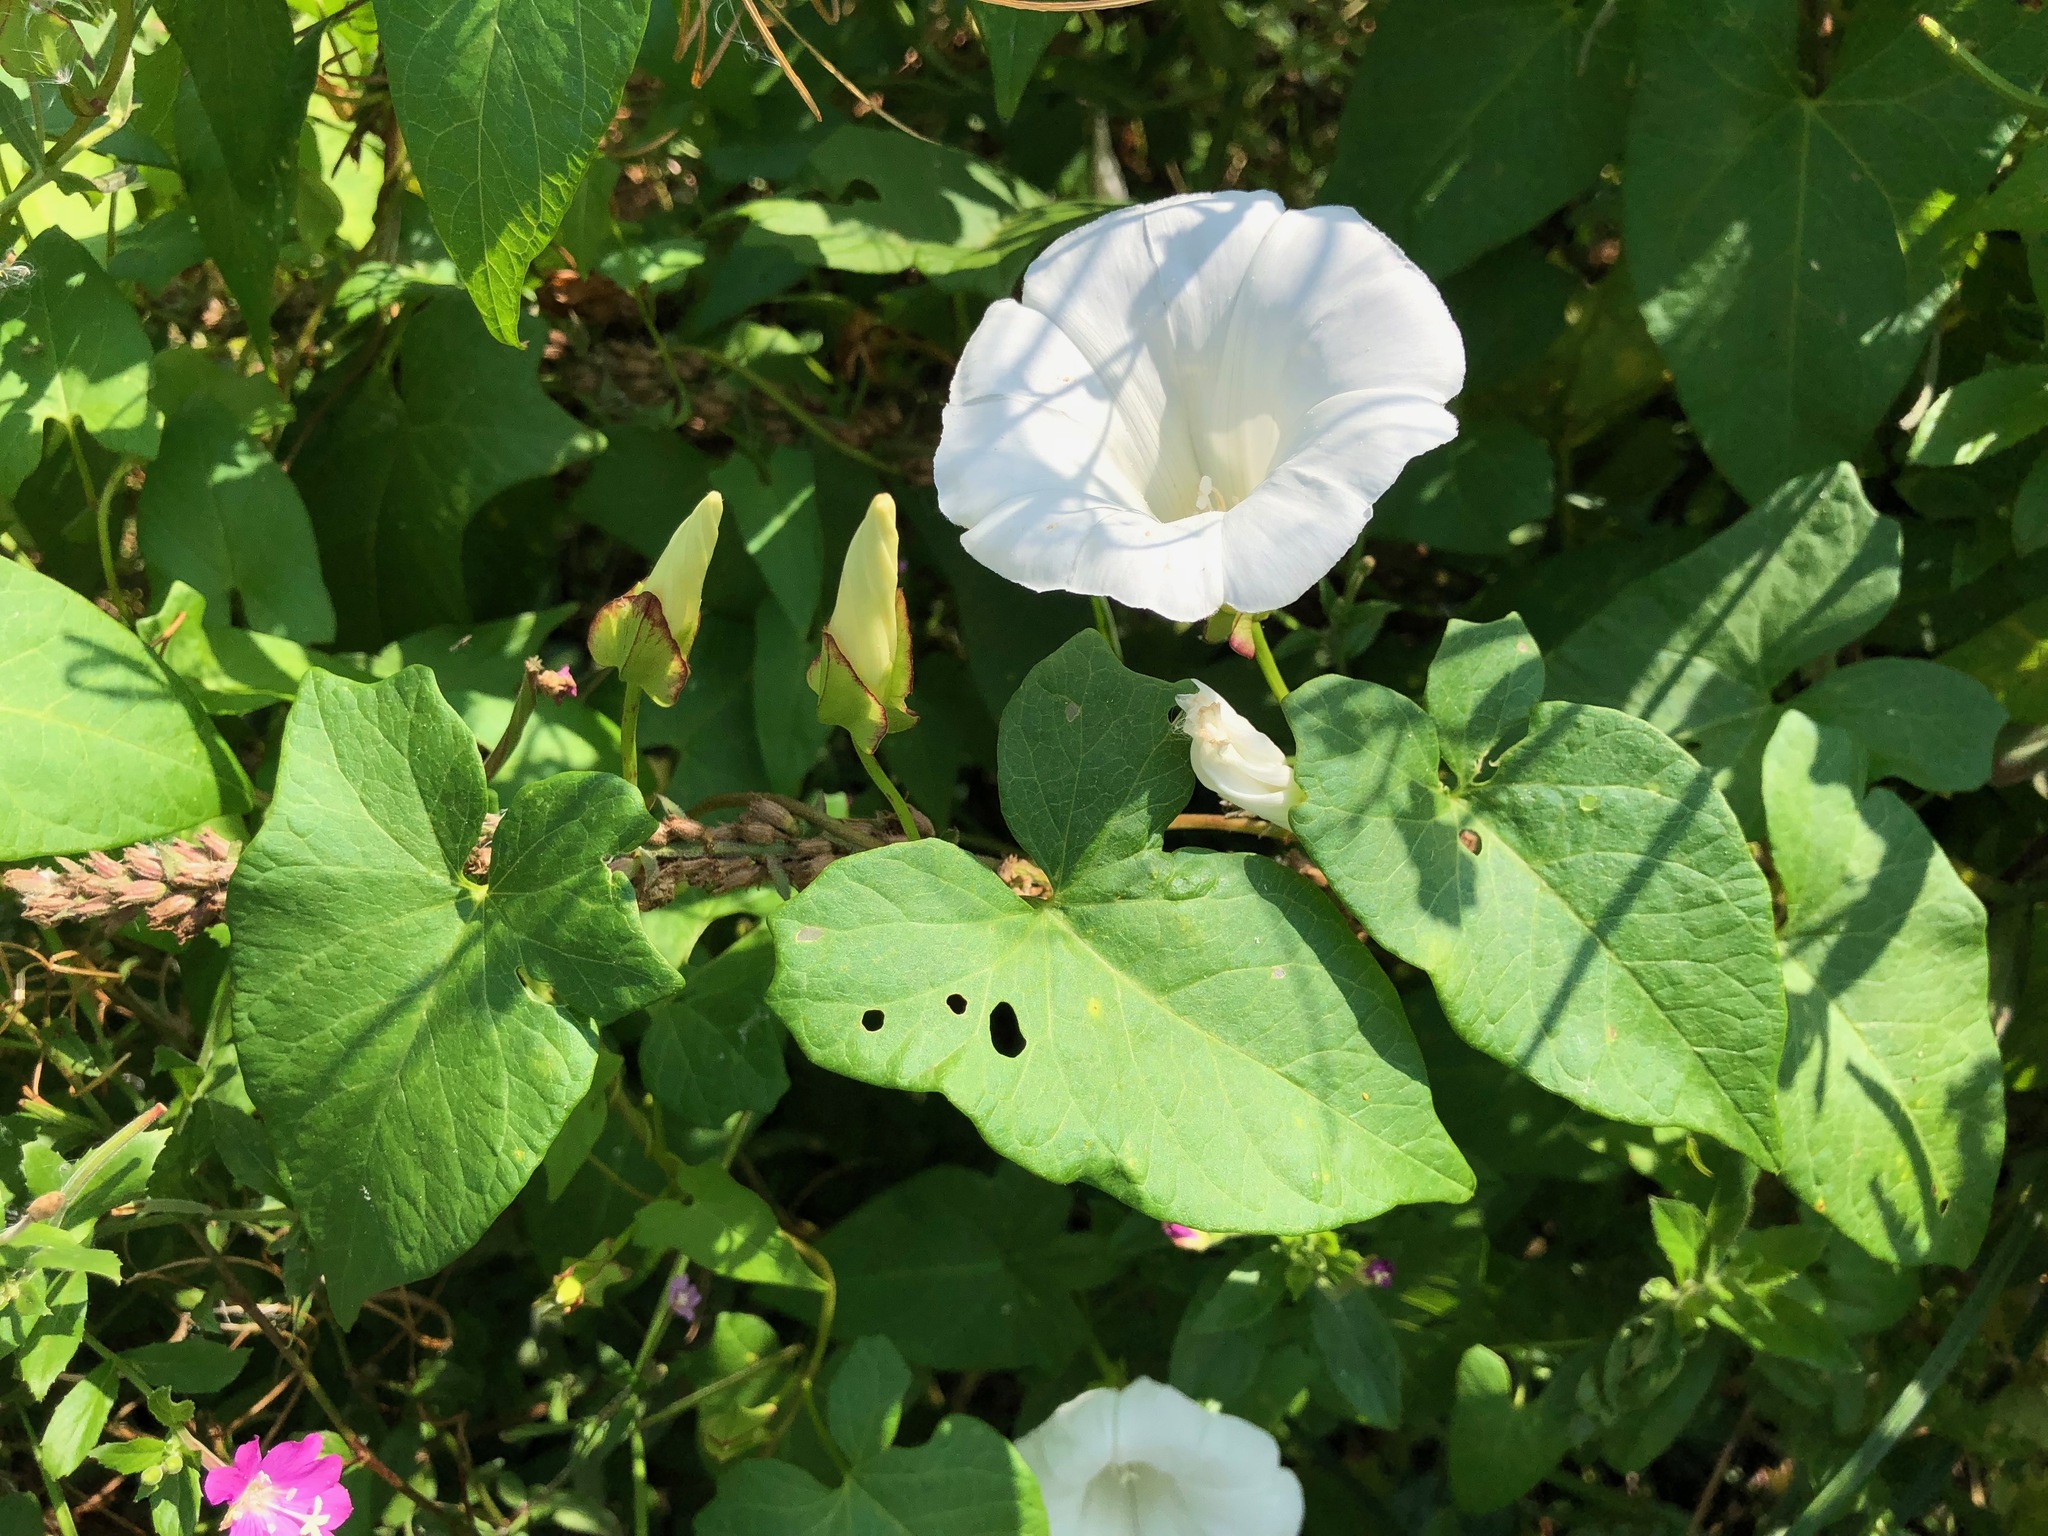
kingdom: Plantae
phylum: Tracheophyta
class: Magnoliopsida
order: Solanales
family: Convolvulaceae
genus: Calystegia
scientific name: Calystegia sepium
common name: Hedge bindweed
